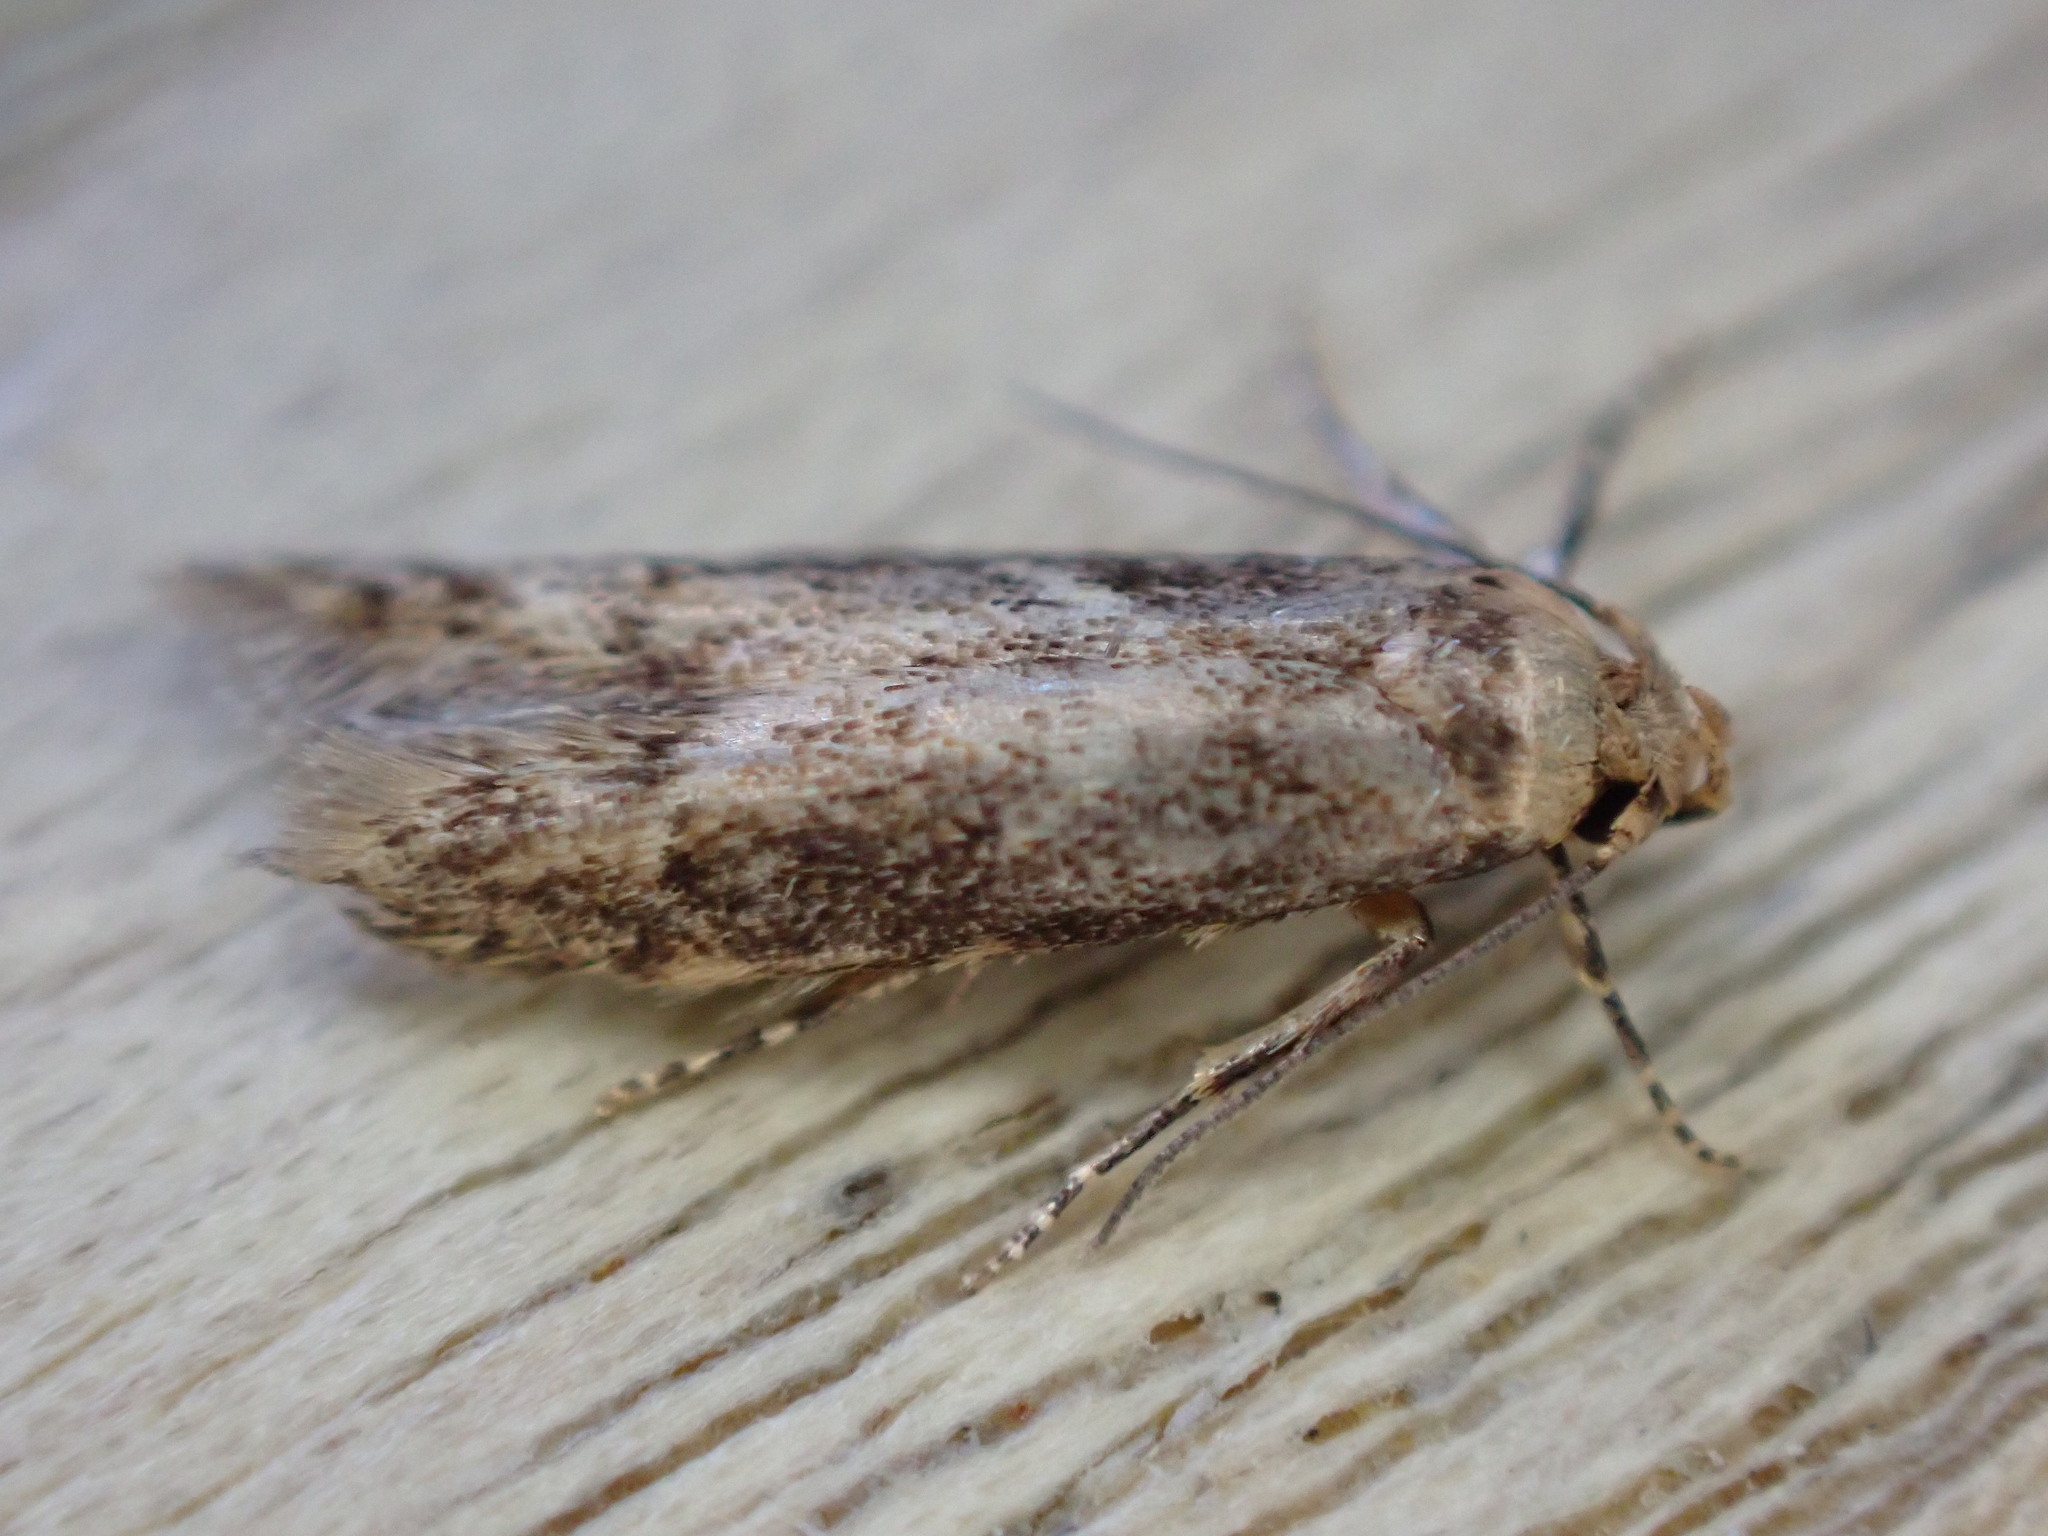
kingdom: Animalia
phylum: Arthropoda
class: Insecta
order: Lepidoptera
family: Blastobasidae
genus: Blastobasis
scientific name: Blastobasis adustella
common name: Dingy dowd
